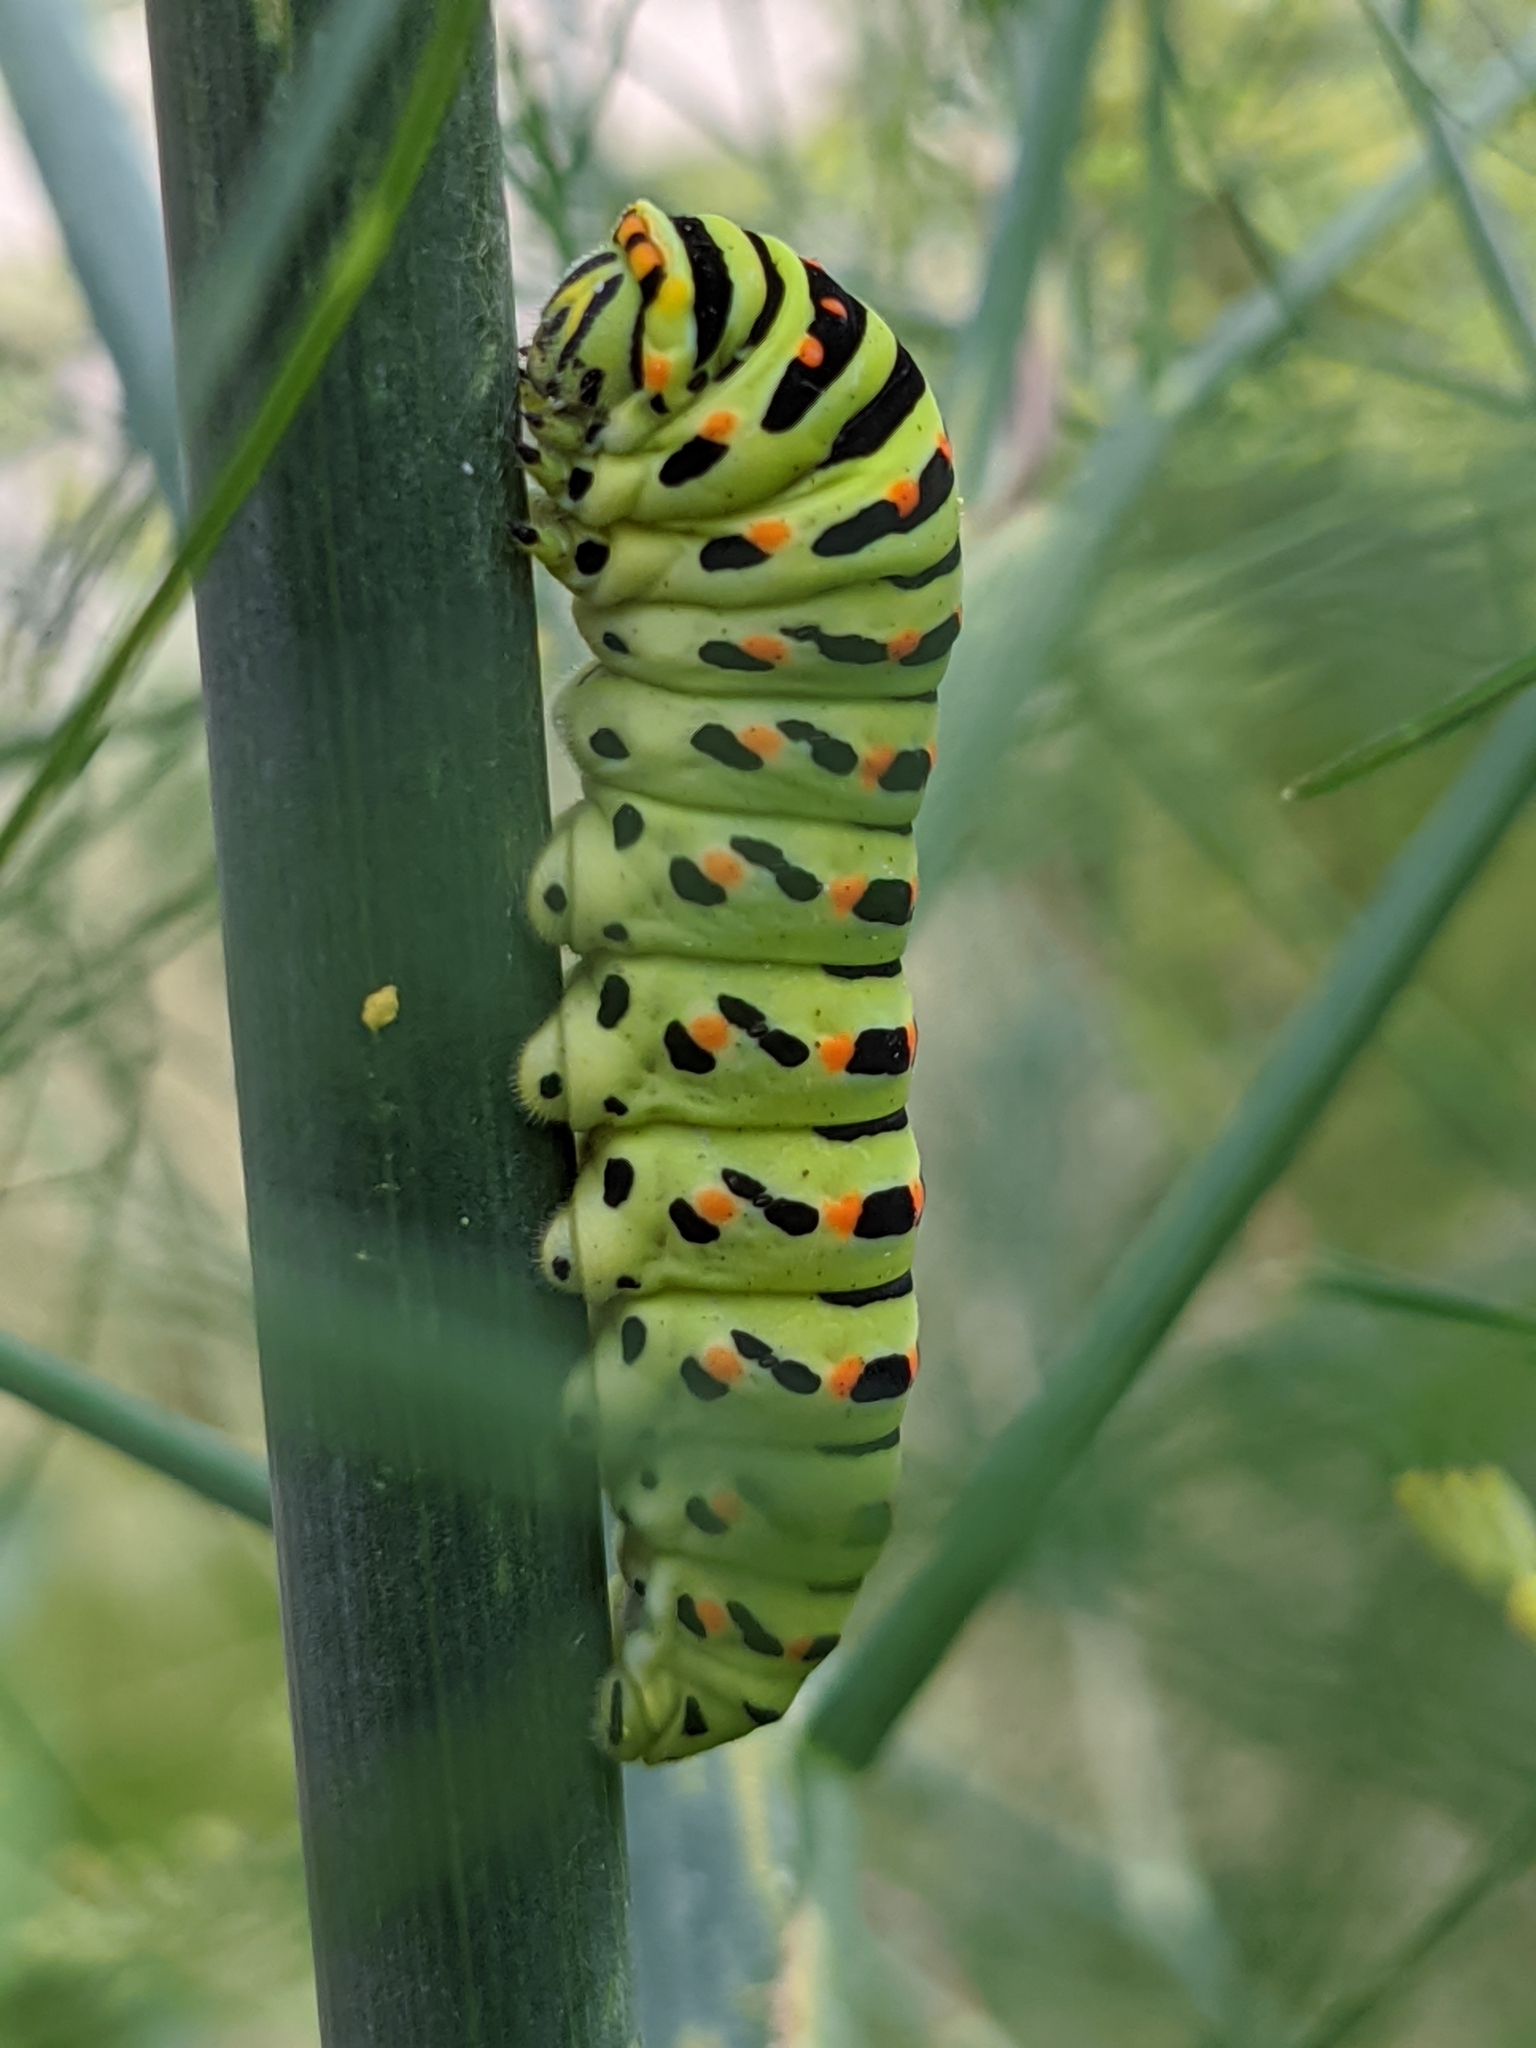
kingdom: Animalia
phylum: Arthropoda
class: Insecta
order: Lepidoptera
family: Papilionidae
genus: Papilio
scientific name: Papilio machaon
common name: Swallowtail
